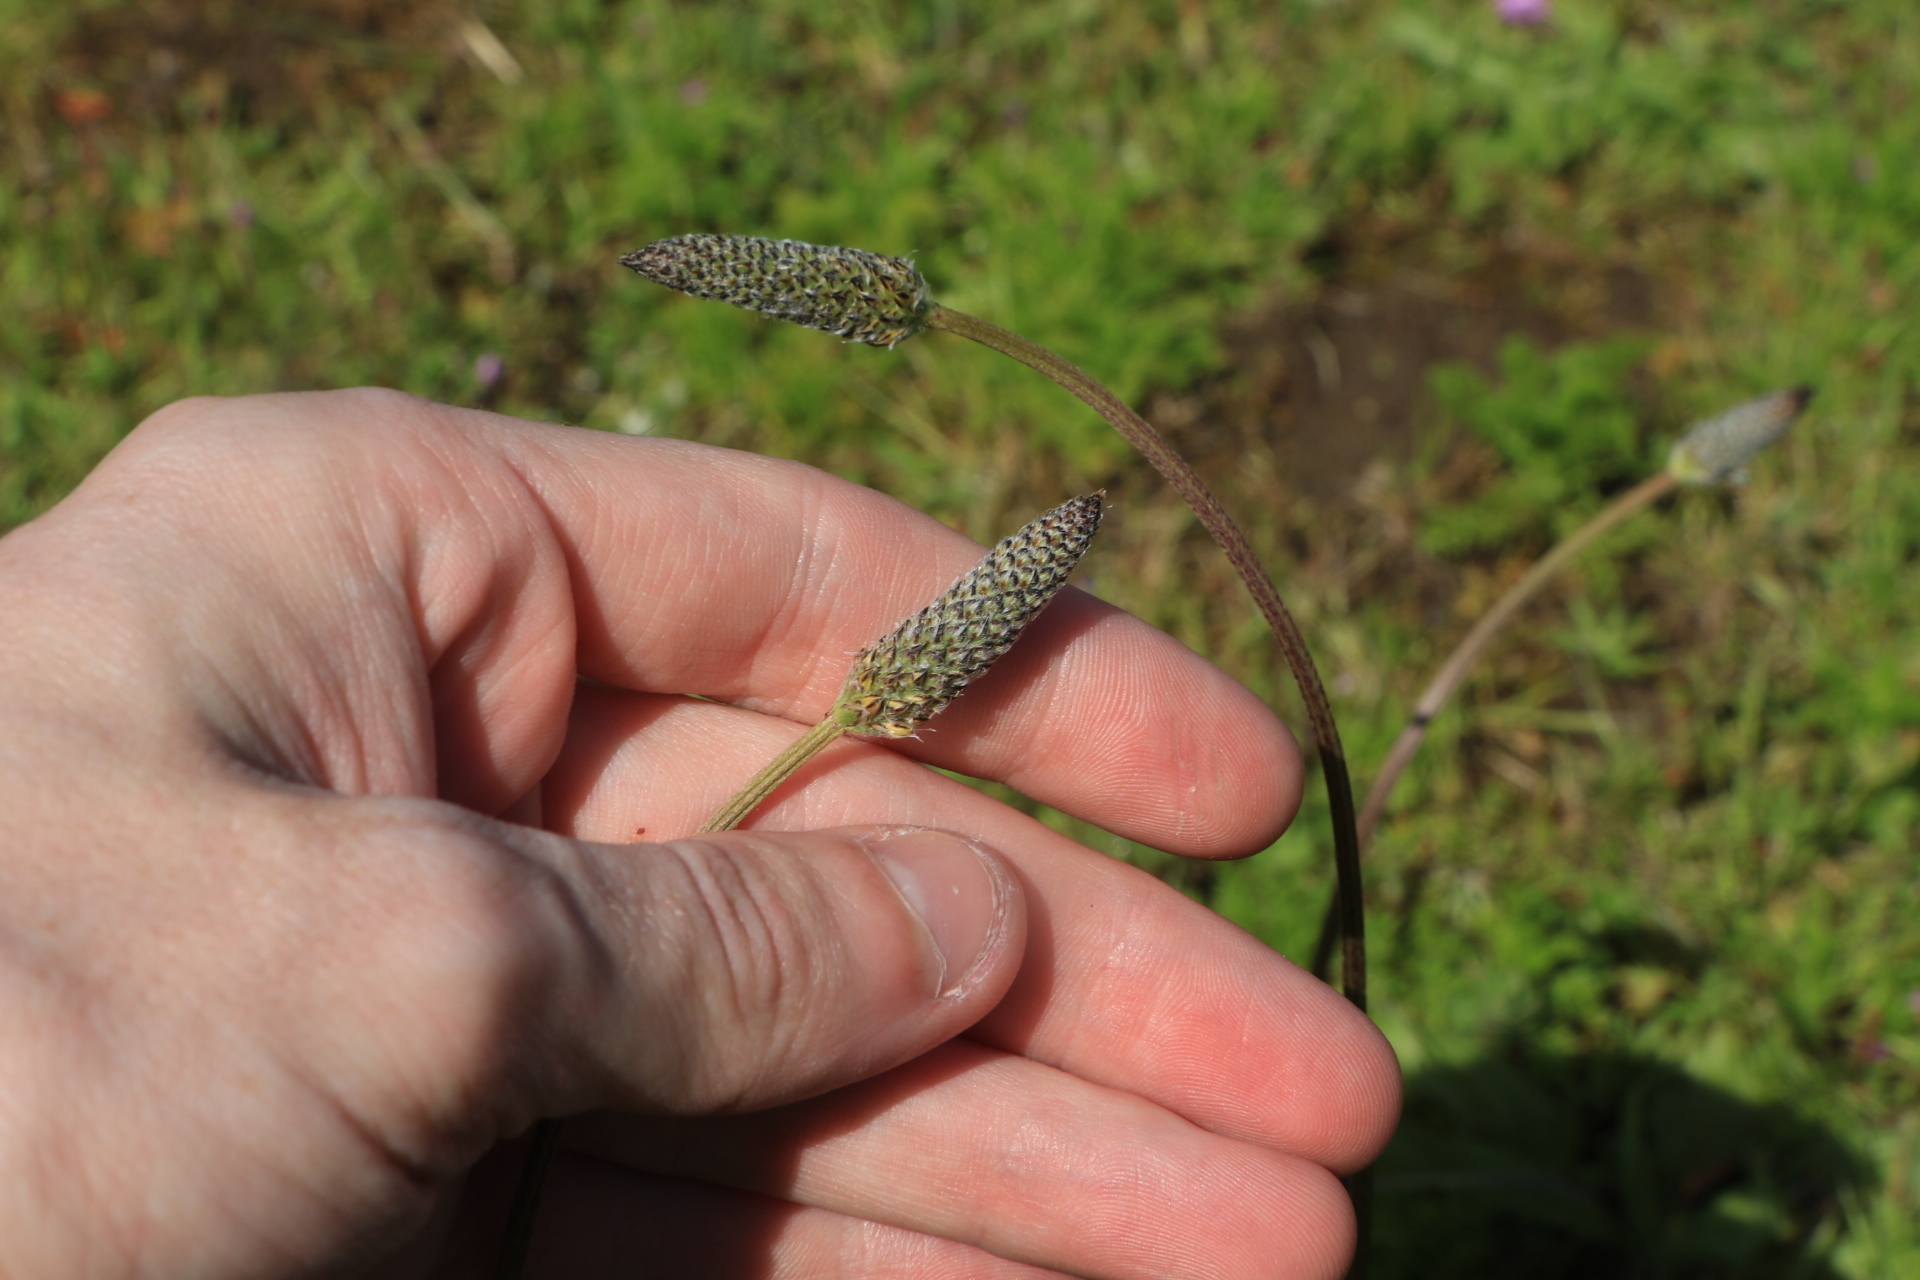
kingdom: Plantae
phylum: Tracheophyta
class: Magnoliopsida
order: Lamiales
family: Plantaginaceae
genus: Plantago
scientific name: Plantago lanceolata
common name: Ribwort plantain
